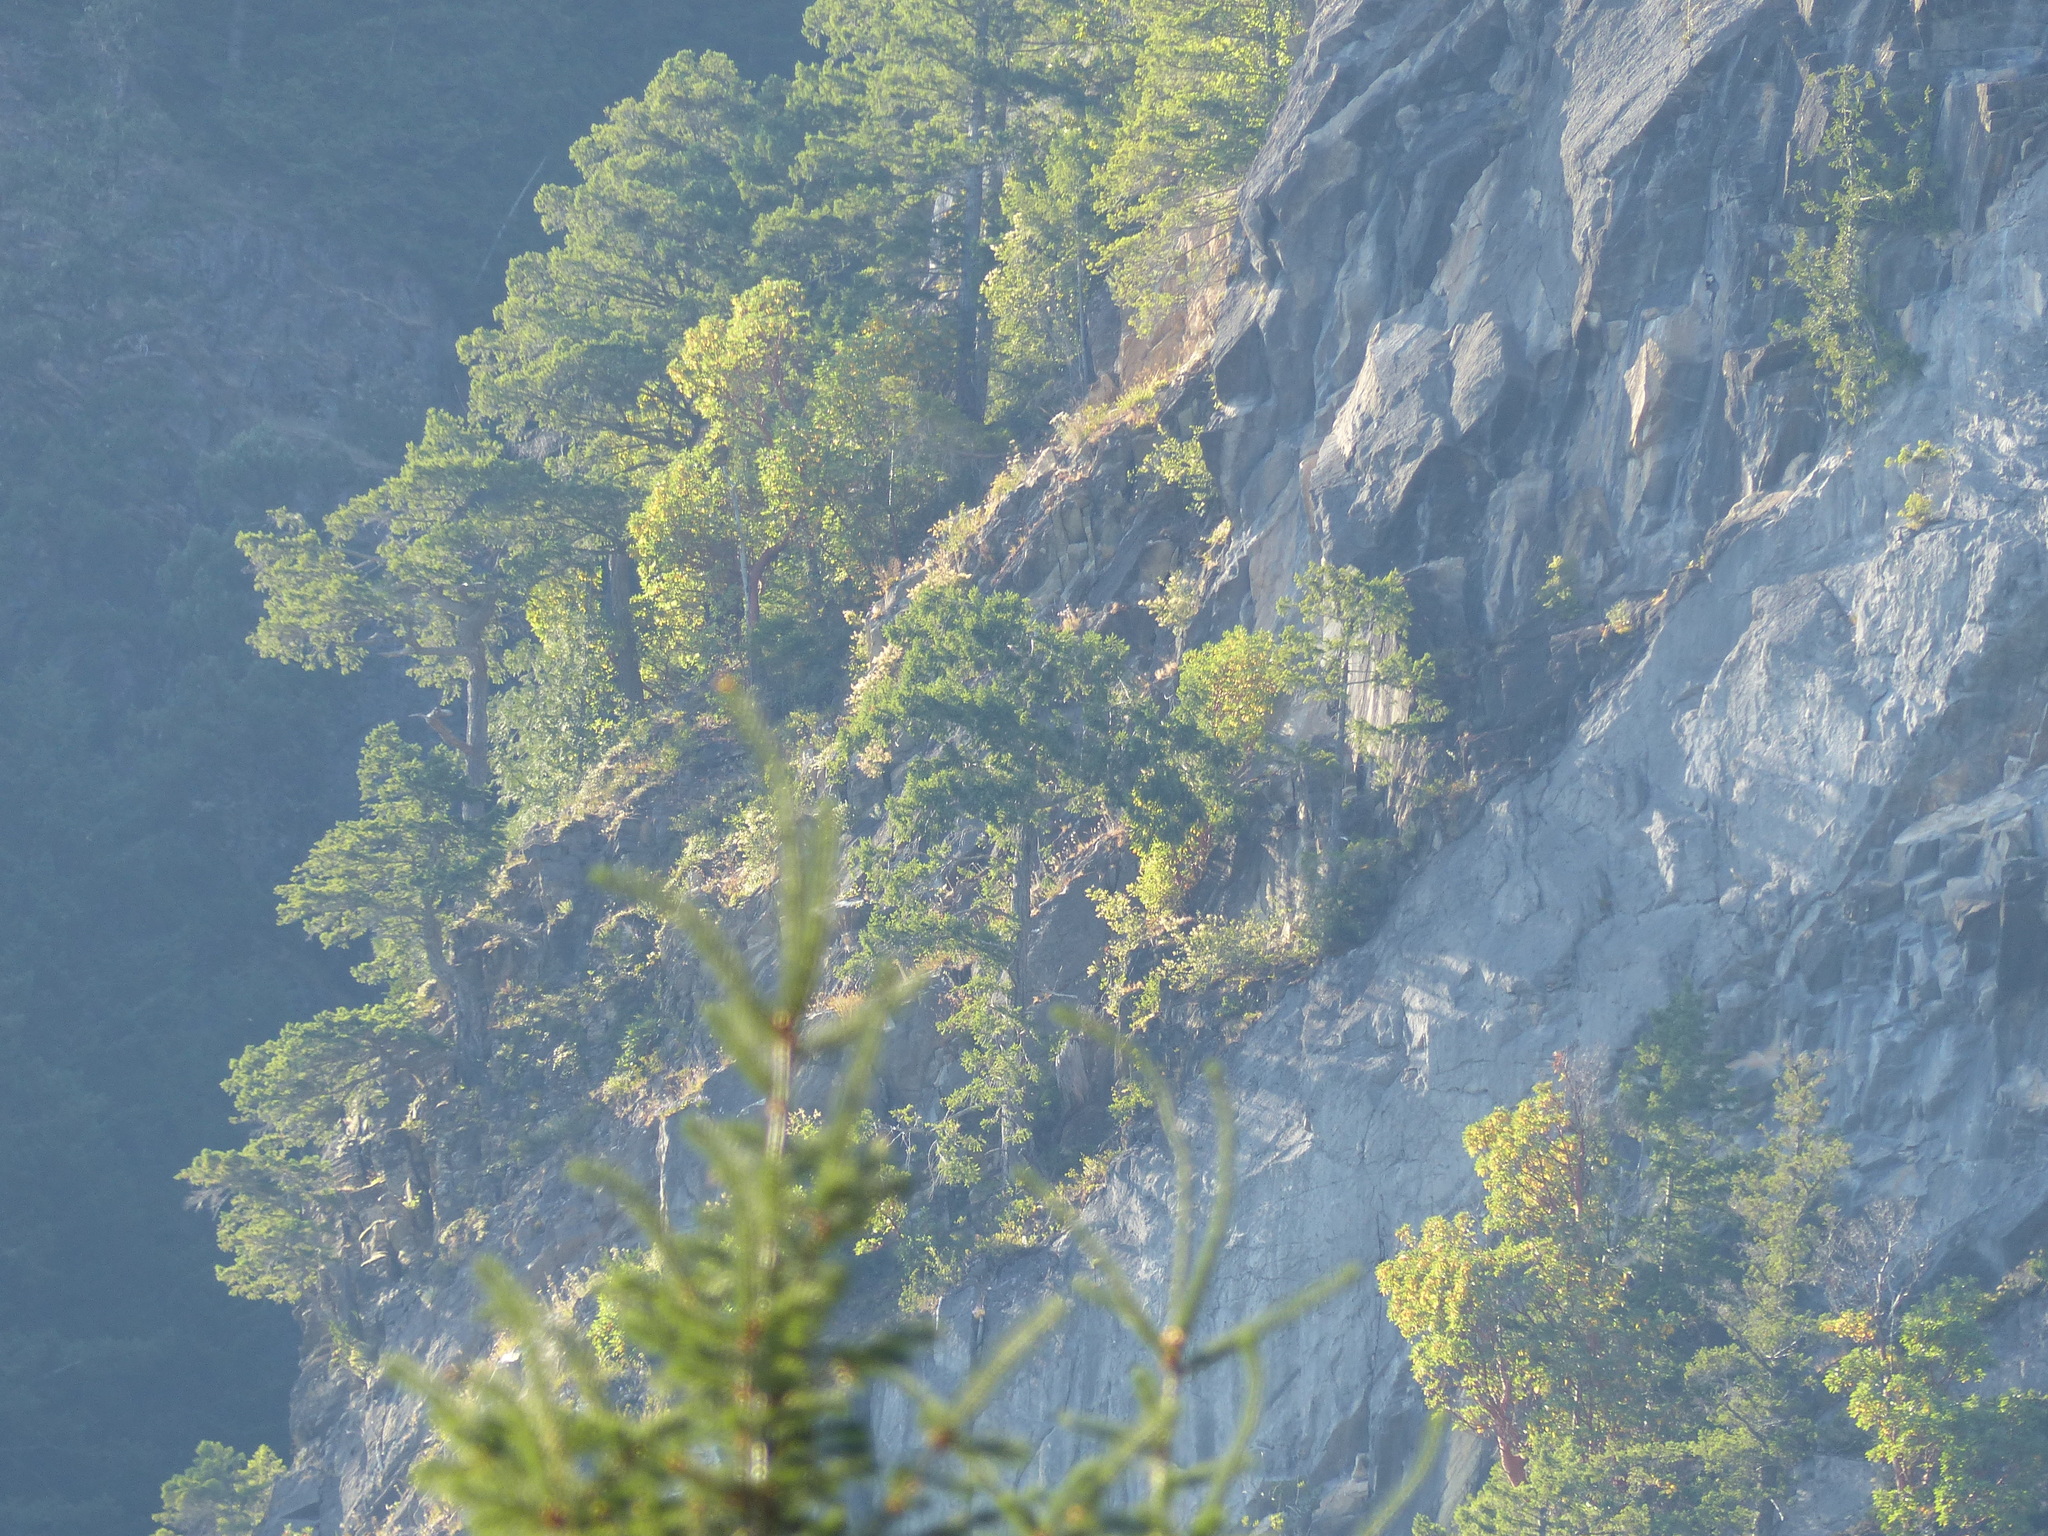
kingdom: Plantae
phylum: Tracheophyta
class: Magnoliopsida
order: Ericales
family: Ericaceae
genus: Arbutus
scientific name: Arbutus menziesii
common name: Pacific madrone
